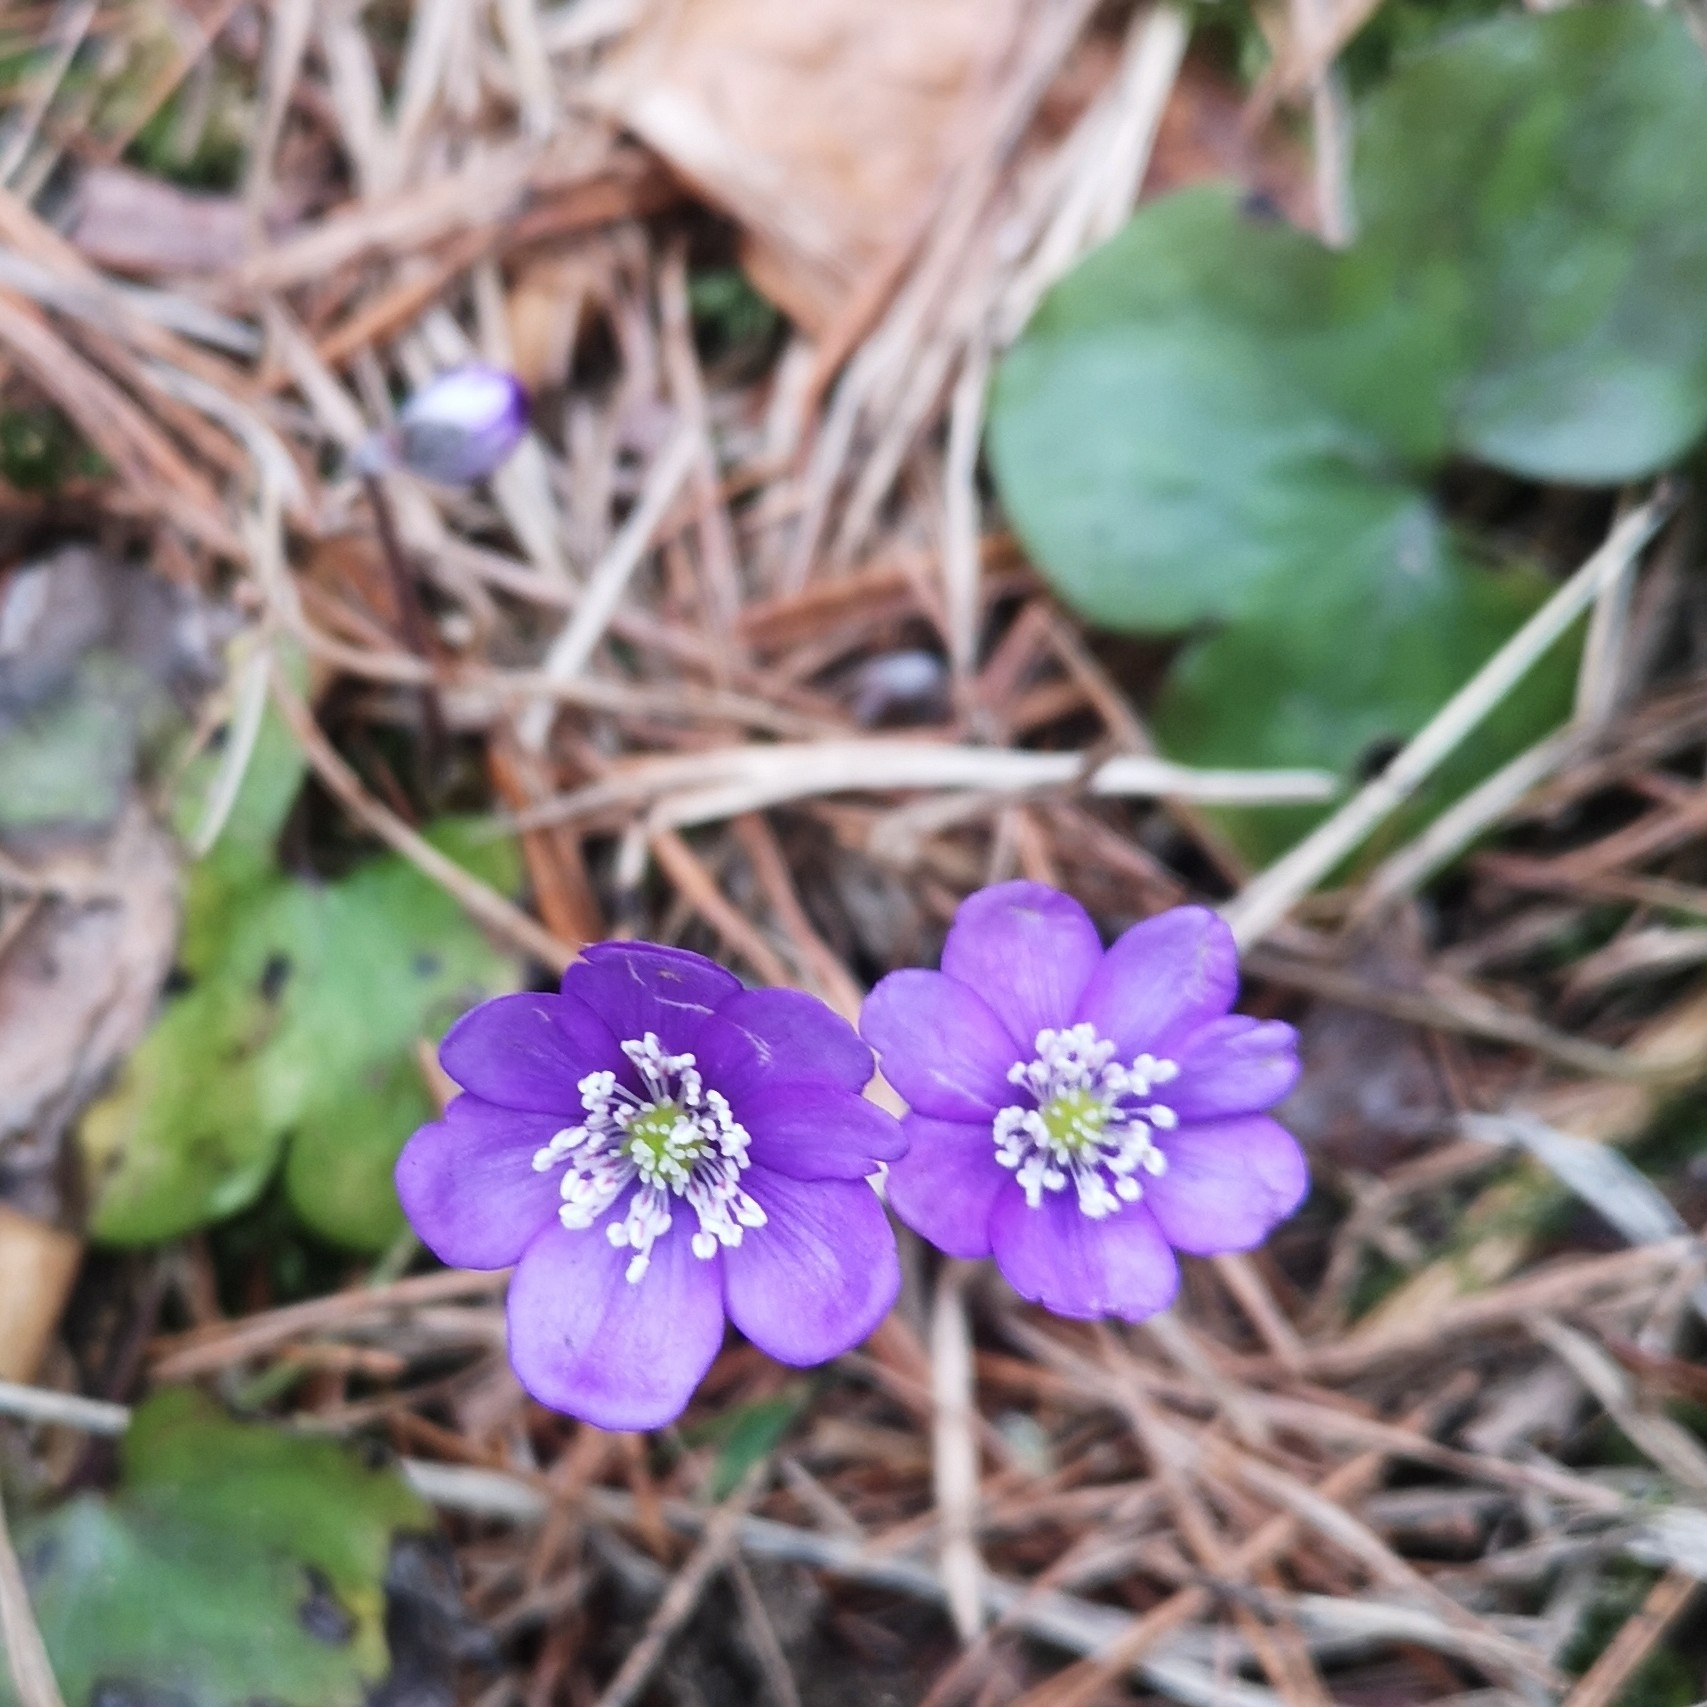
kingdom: Plantae
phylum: Tracheophyta
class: Magnoliopsida
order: Ranunculales
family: Ranunculaceae
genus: Hepatica
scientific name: Hepatica nobilis
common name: Liverleaf
